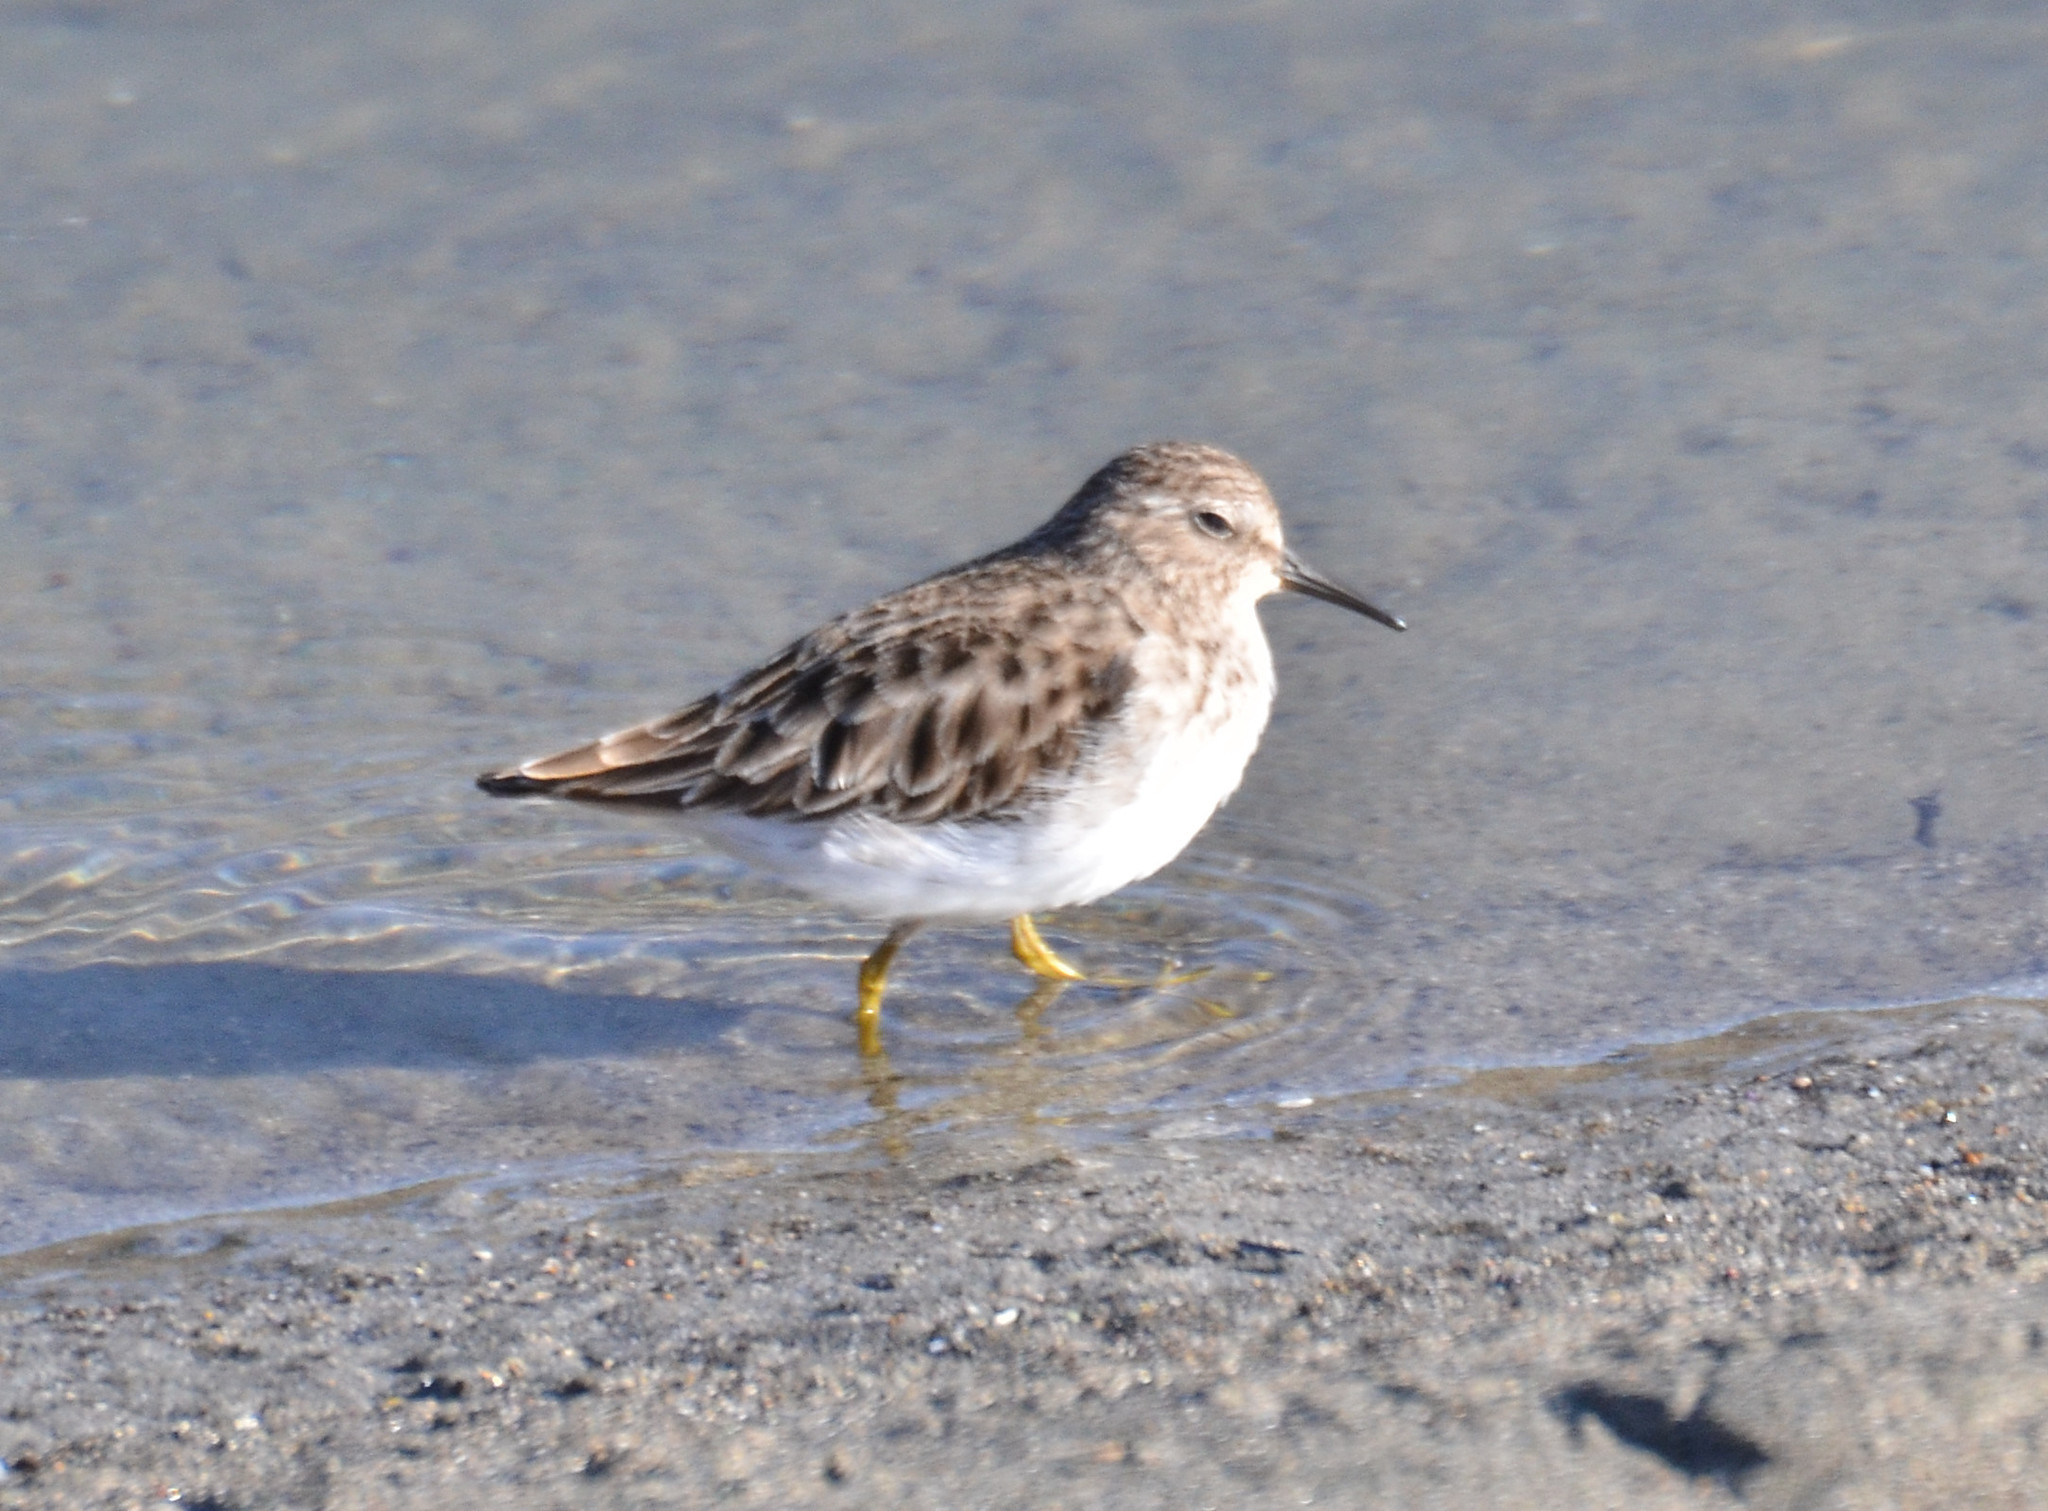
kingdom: Animalia
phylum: Chordata
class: Aves
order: Charadriiformes
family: Scolopacidae
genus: Calidris
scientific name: Calidris minutilla
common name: Least sandpiper
